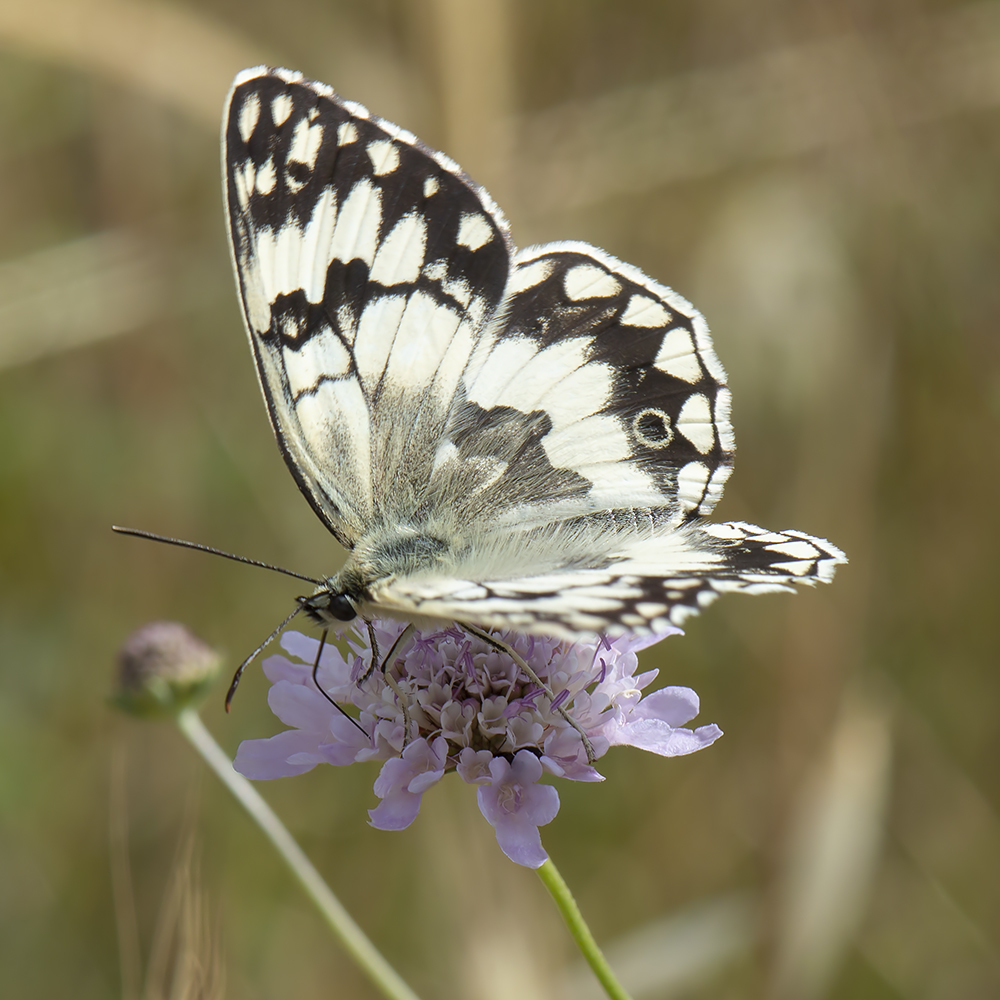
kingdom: Animalia
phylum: Arthropoda
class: Insecta
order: Lepidoptera
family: Nymphalidae
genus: Melanargia
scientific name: Melanargia larissa
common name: Balkan marbled white
